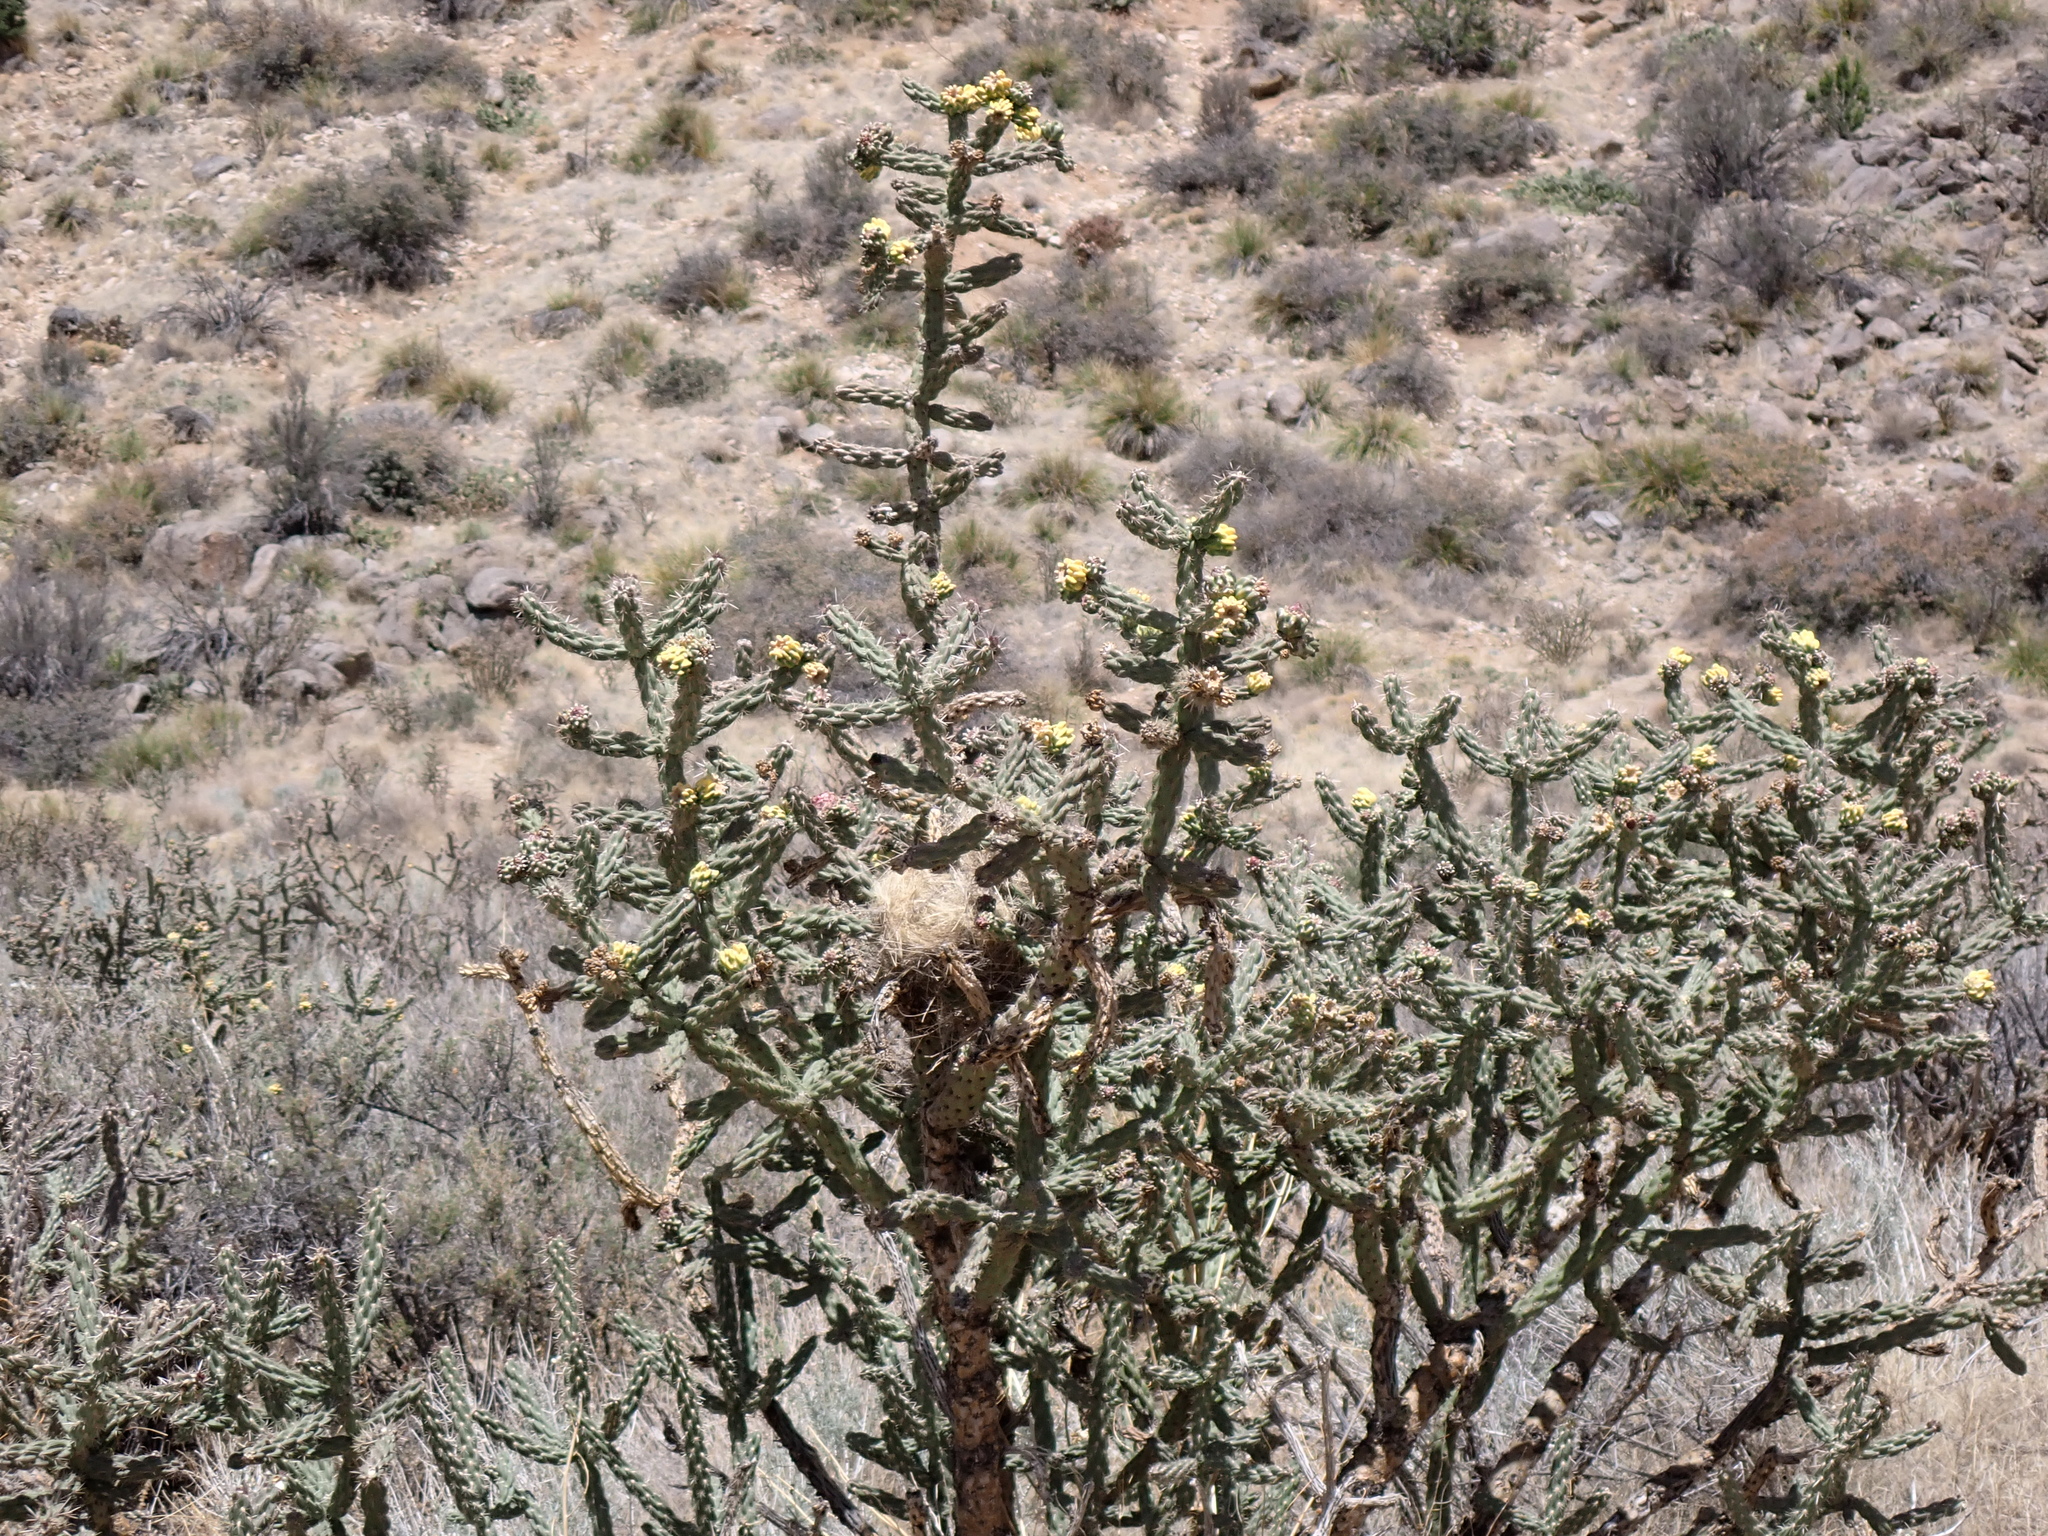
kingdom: Plantae
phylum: Tracheophyta
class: Magnoliopsida
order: Caryophyllales
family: Cactaceae
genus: Cylindropuntia
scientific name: Cylindropuntia imbricata
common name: Candelabrum cactus
